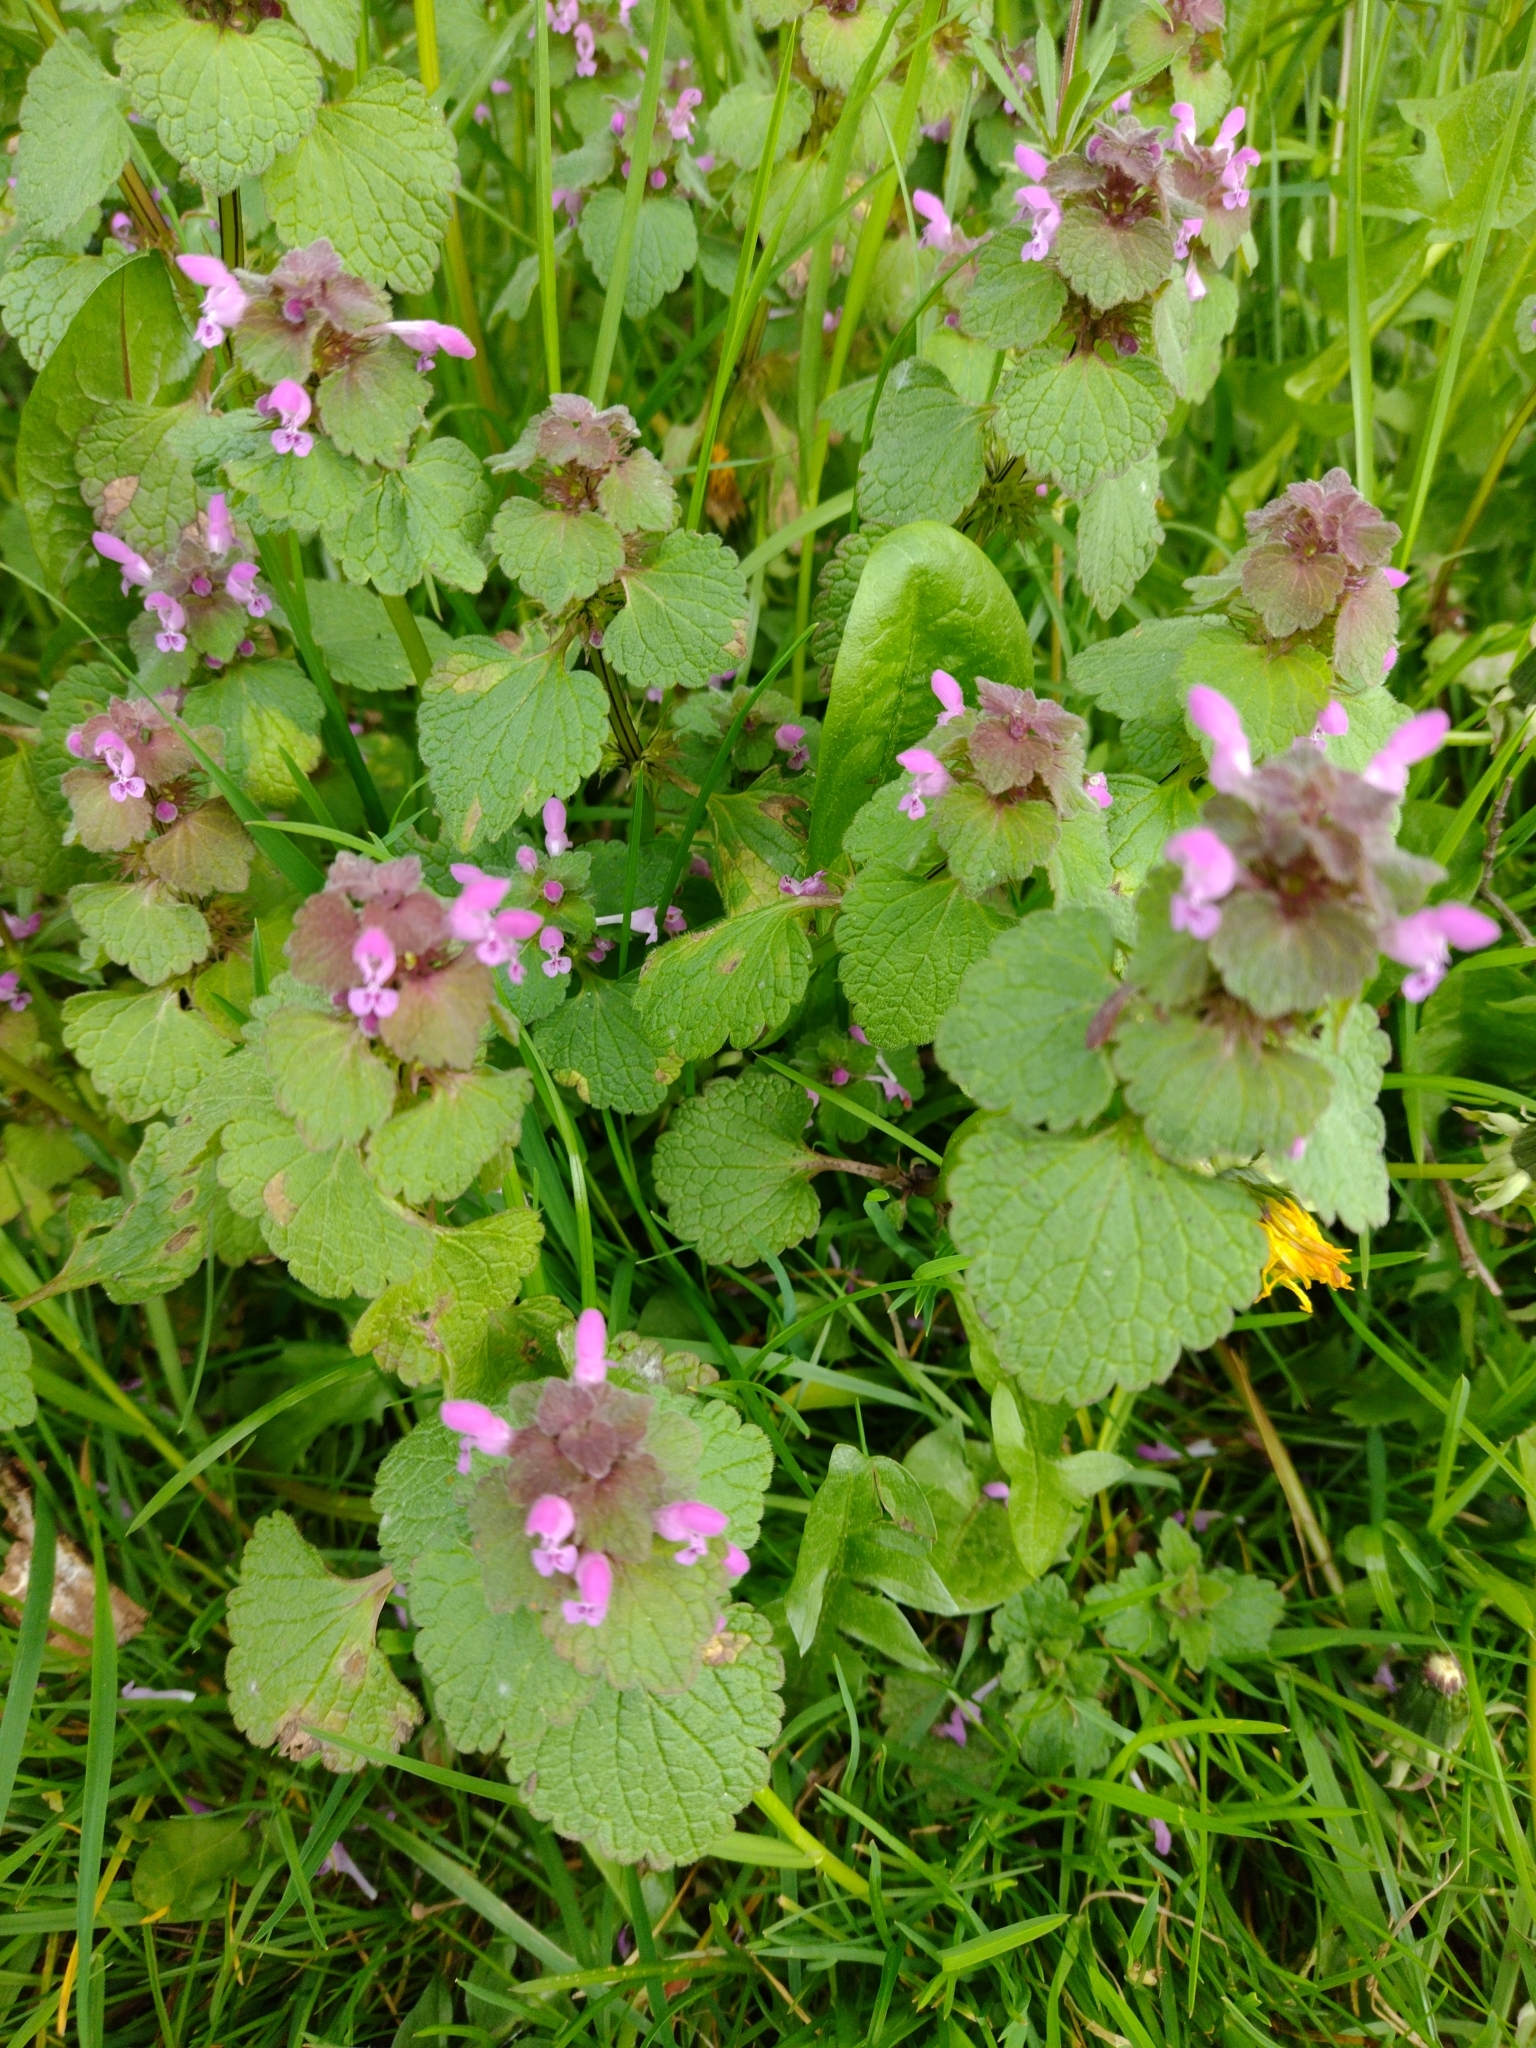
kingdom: Plantae
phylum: Tracheophyta
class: Magnoliopsida
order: Lamiales
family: Lamiaceae
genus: Lamium
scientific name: Lamium purpureum
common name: Red dead-nettle
